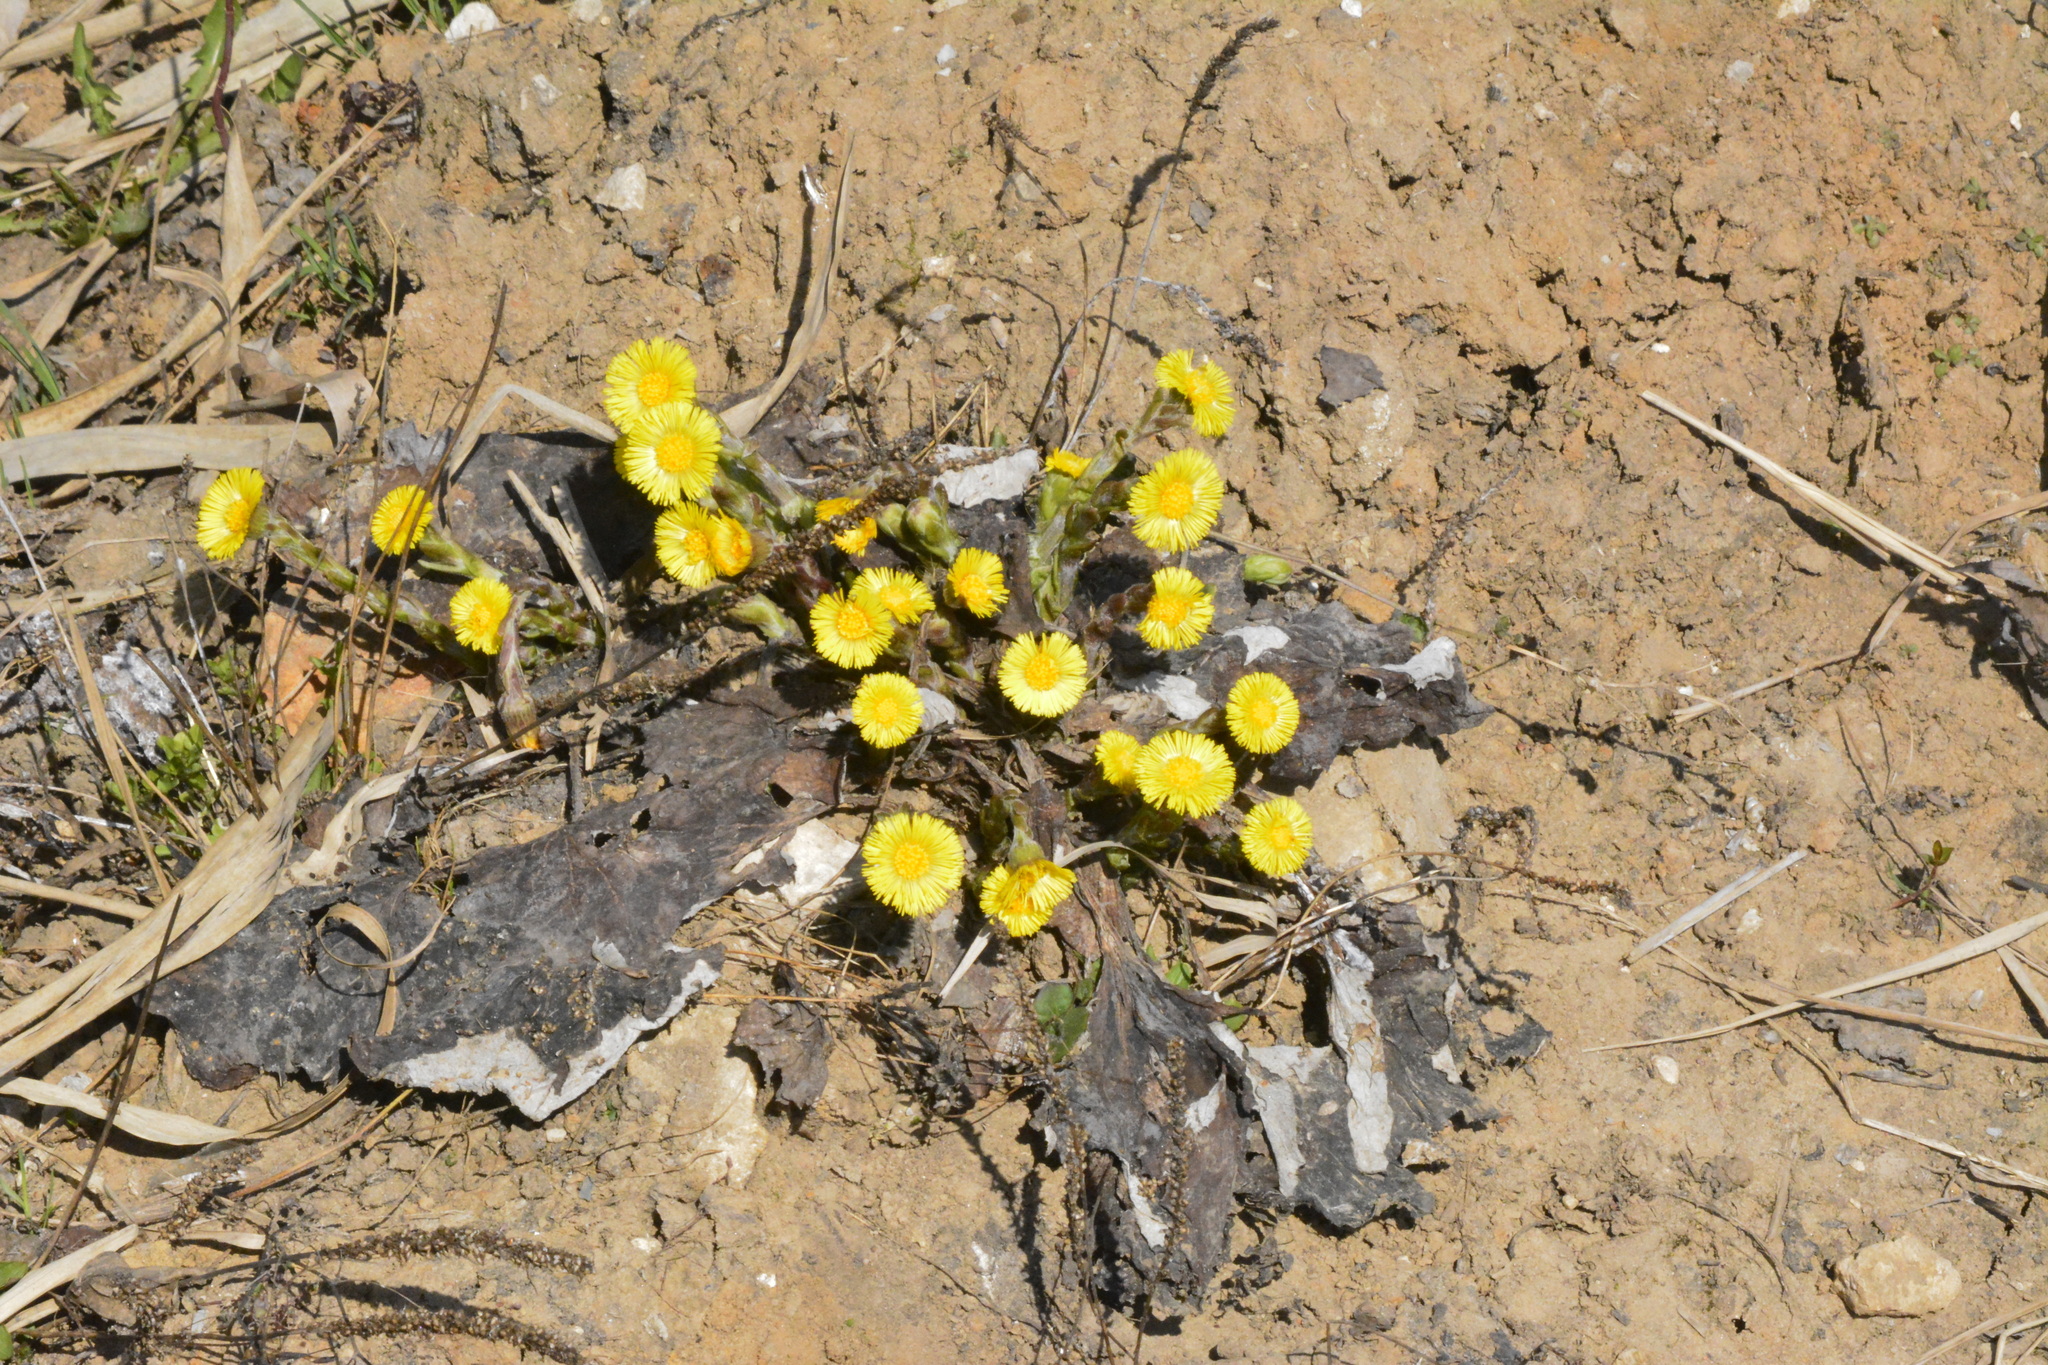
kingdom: Plantae
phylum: Tracheophyta
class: Magnoliopsida
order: Asterales
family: Asteraceae
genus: Tussilago
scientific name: Tussilago farfara
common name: Coltsfoot
